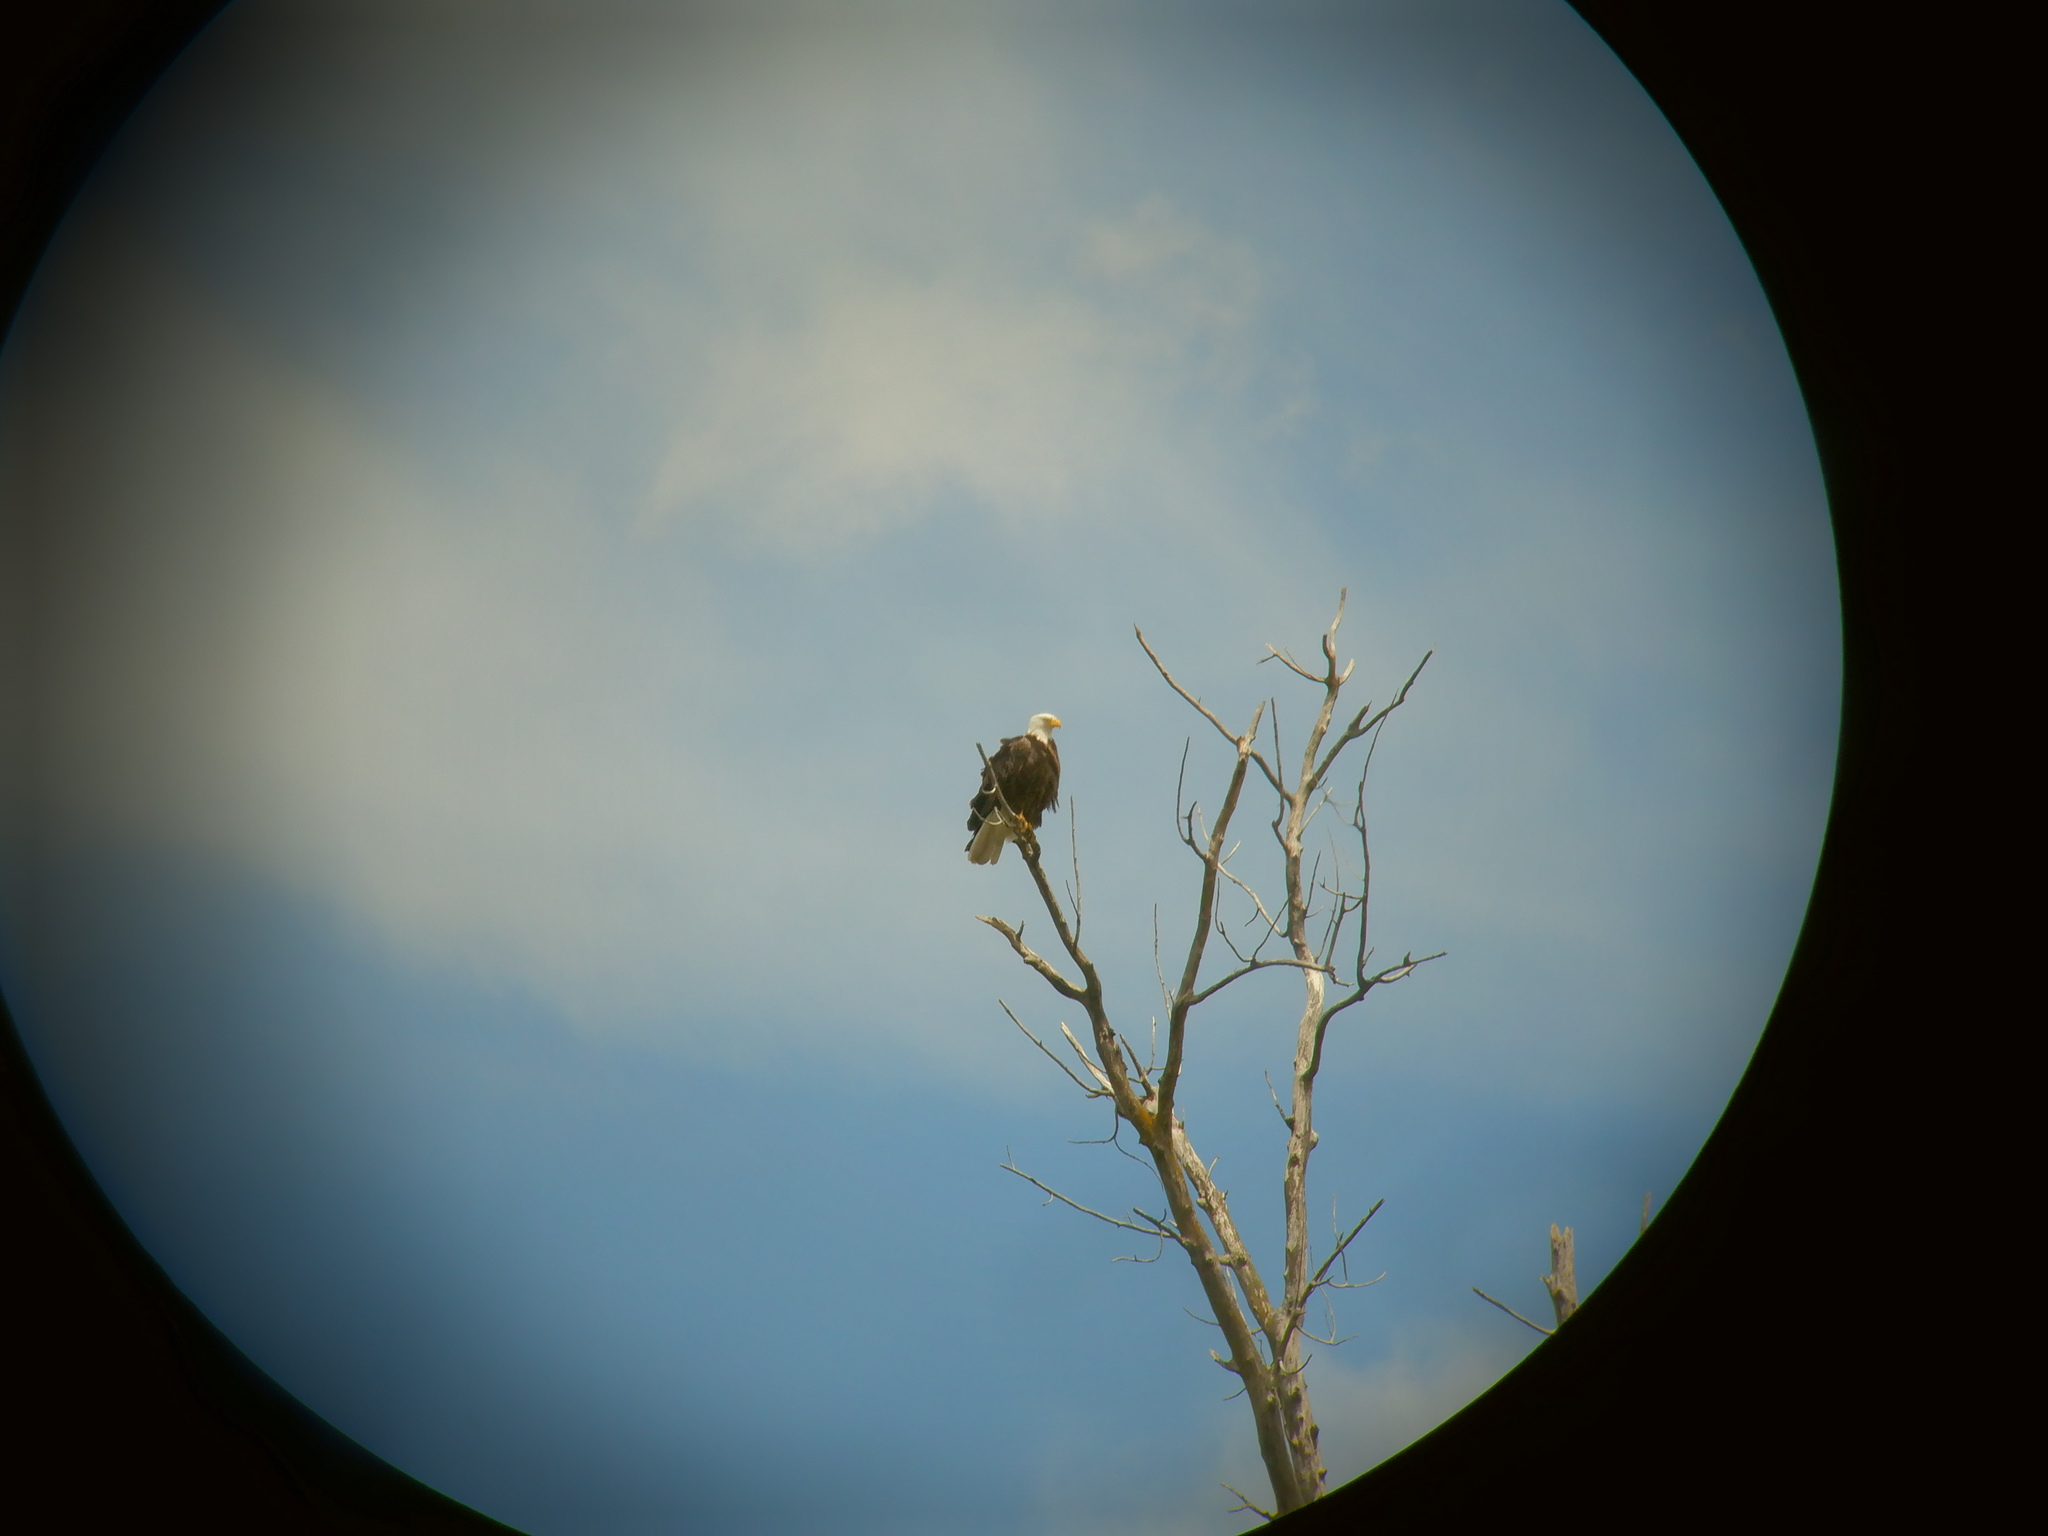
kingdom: Animalia
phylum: Chordata
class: Aves
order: Accipitriformes
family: Accipitridae
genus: Haliaeetus
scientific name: Haliaeetus leucocephalus
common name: Bald eagle
